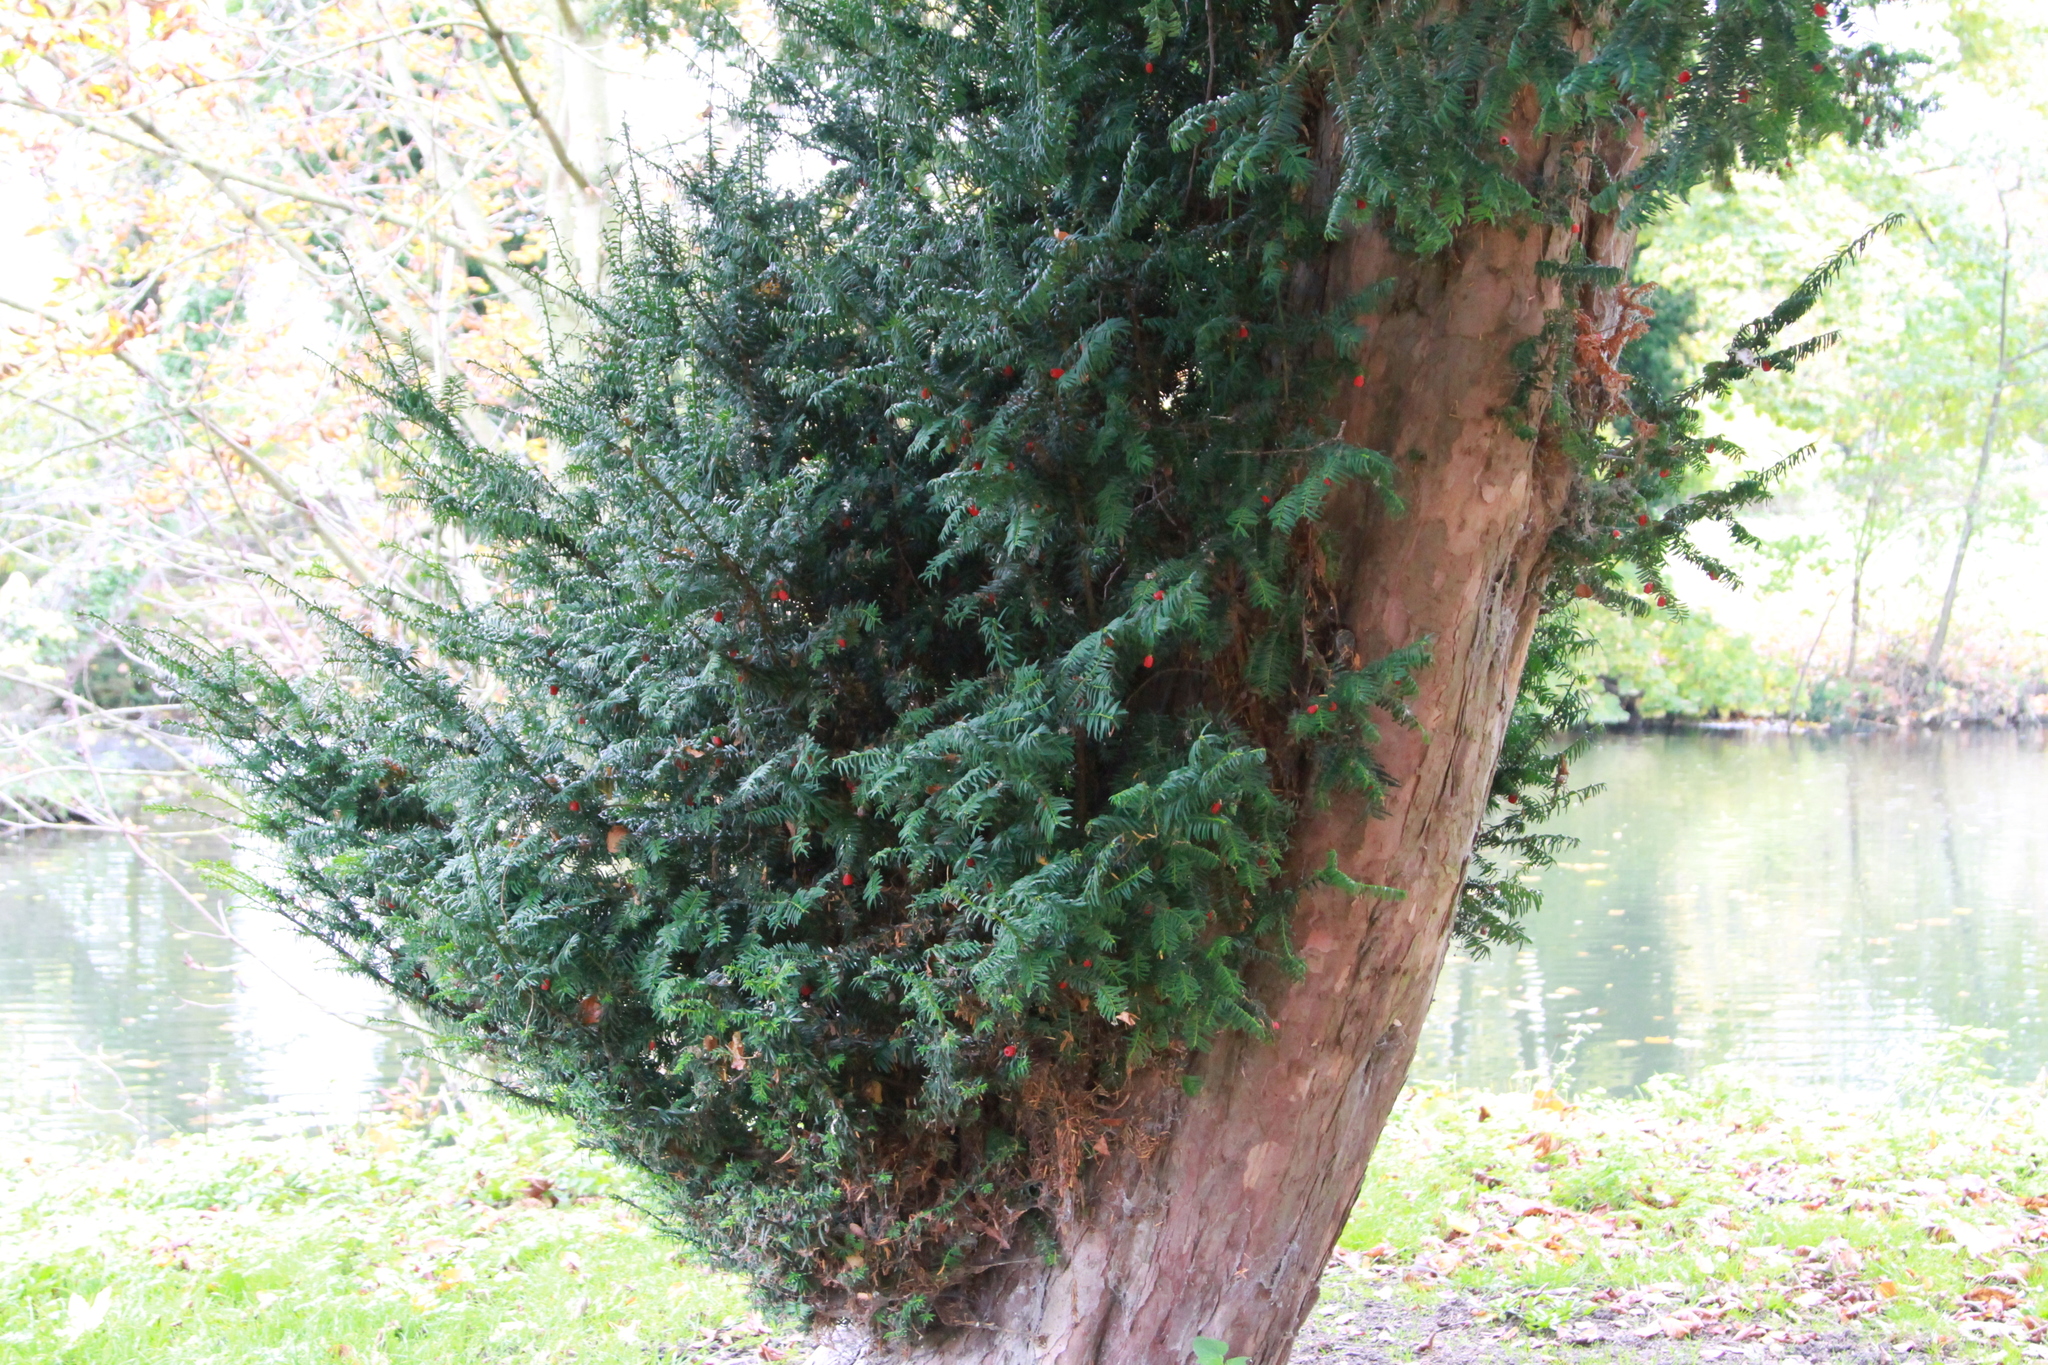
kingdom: Plantae
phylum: Tracheophyta
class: Pinopsida
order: Pinales
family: Taxaceae
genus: Taxus
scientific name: Taxus baccata
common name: Yew
